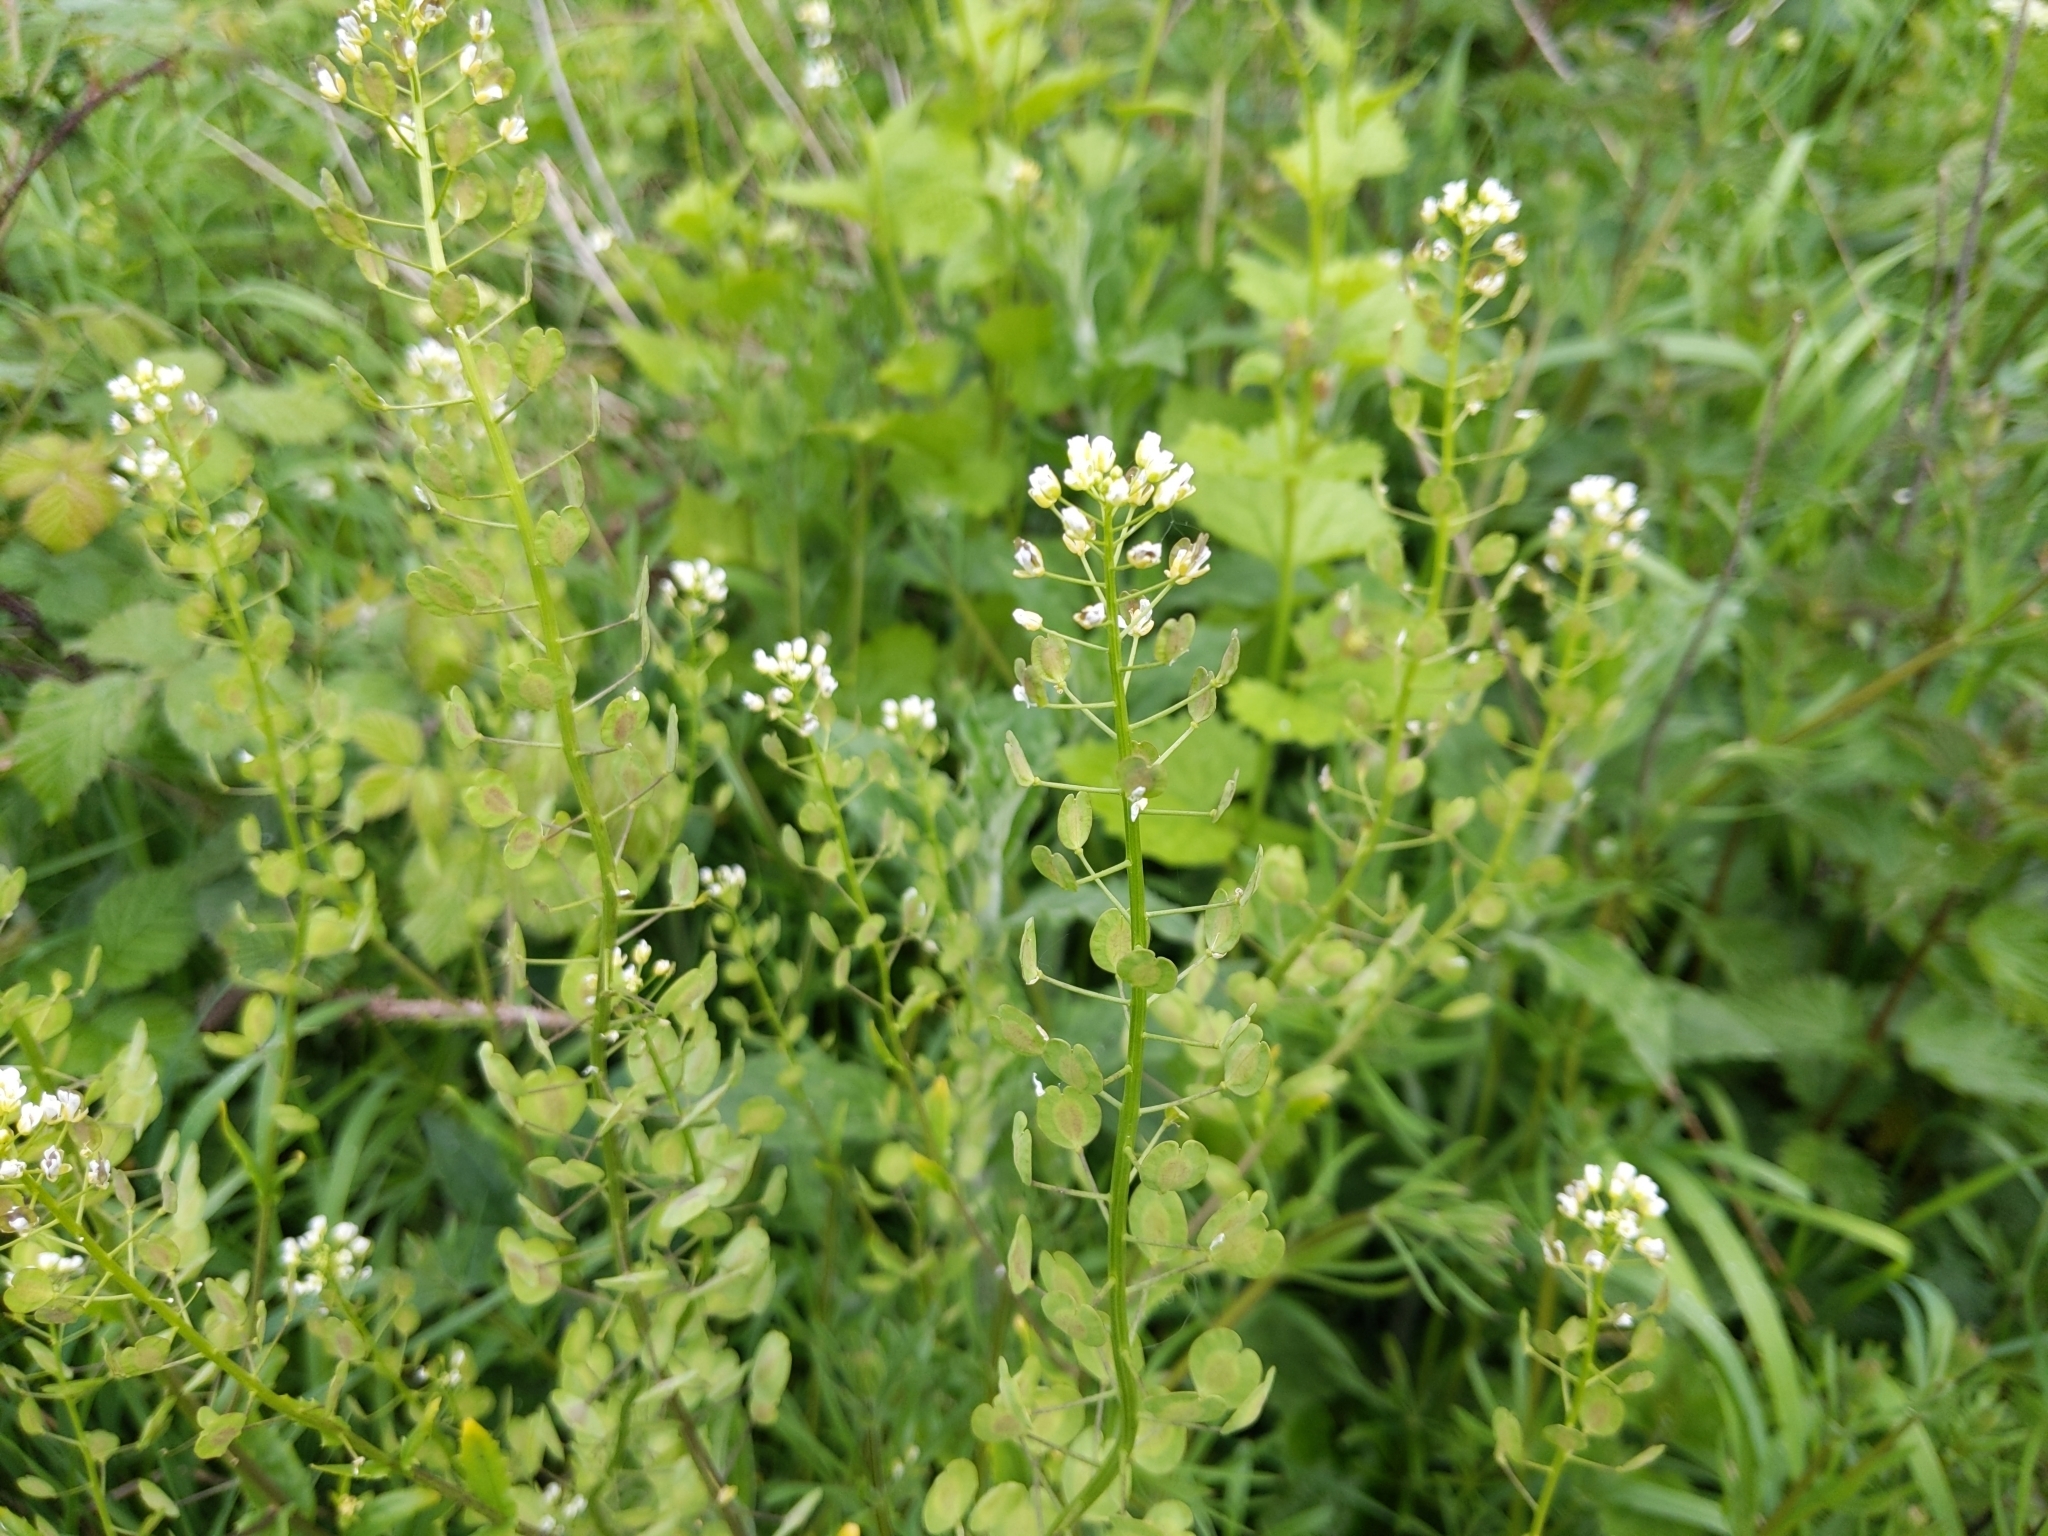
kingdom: Plantae
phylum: Tracheophyta
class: Magnoliopsida
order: Brassicales
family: Brassicaceae
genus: Thlaspi
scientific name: Thlaspi arvense
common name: Field pennycress
